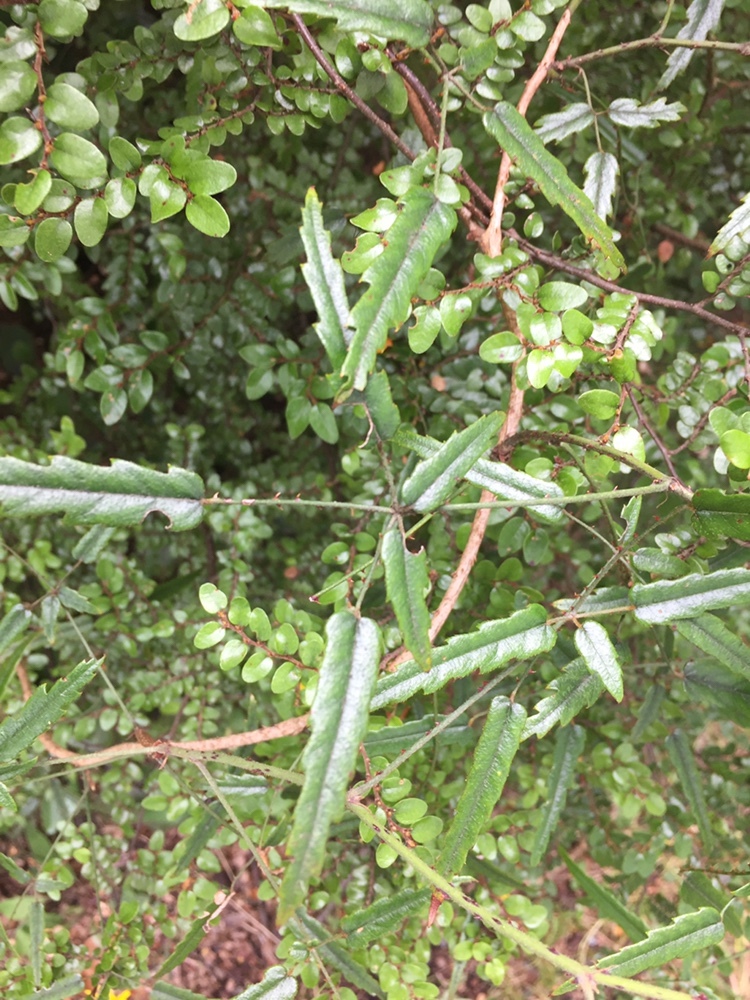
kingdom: Plantae
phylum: Tracheophyta
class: Magnoliopsida
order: Rosales
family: Rosaceae
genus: Rubus
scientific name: Rubus schmidelioides
